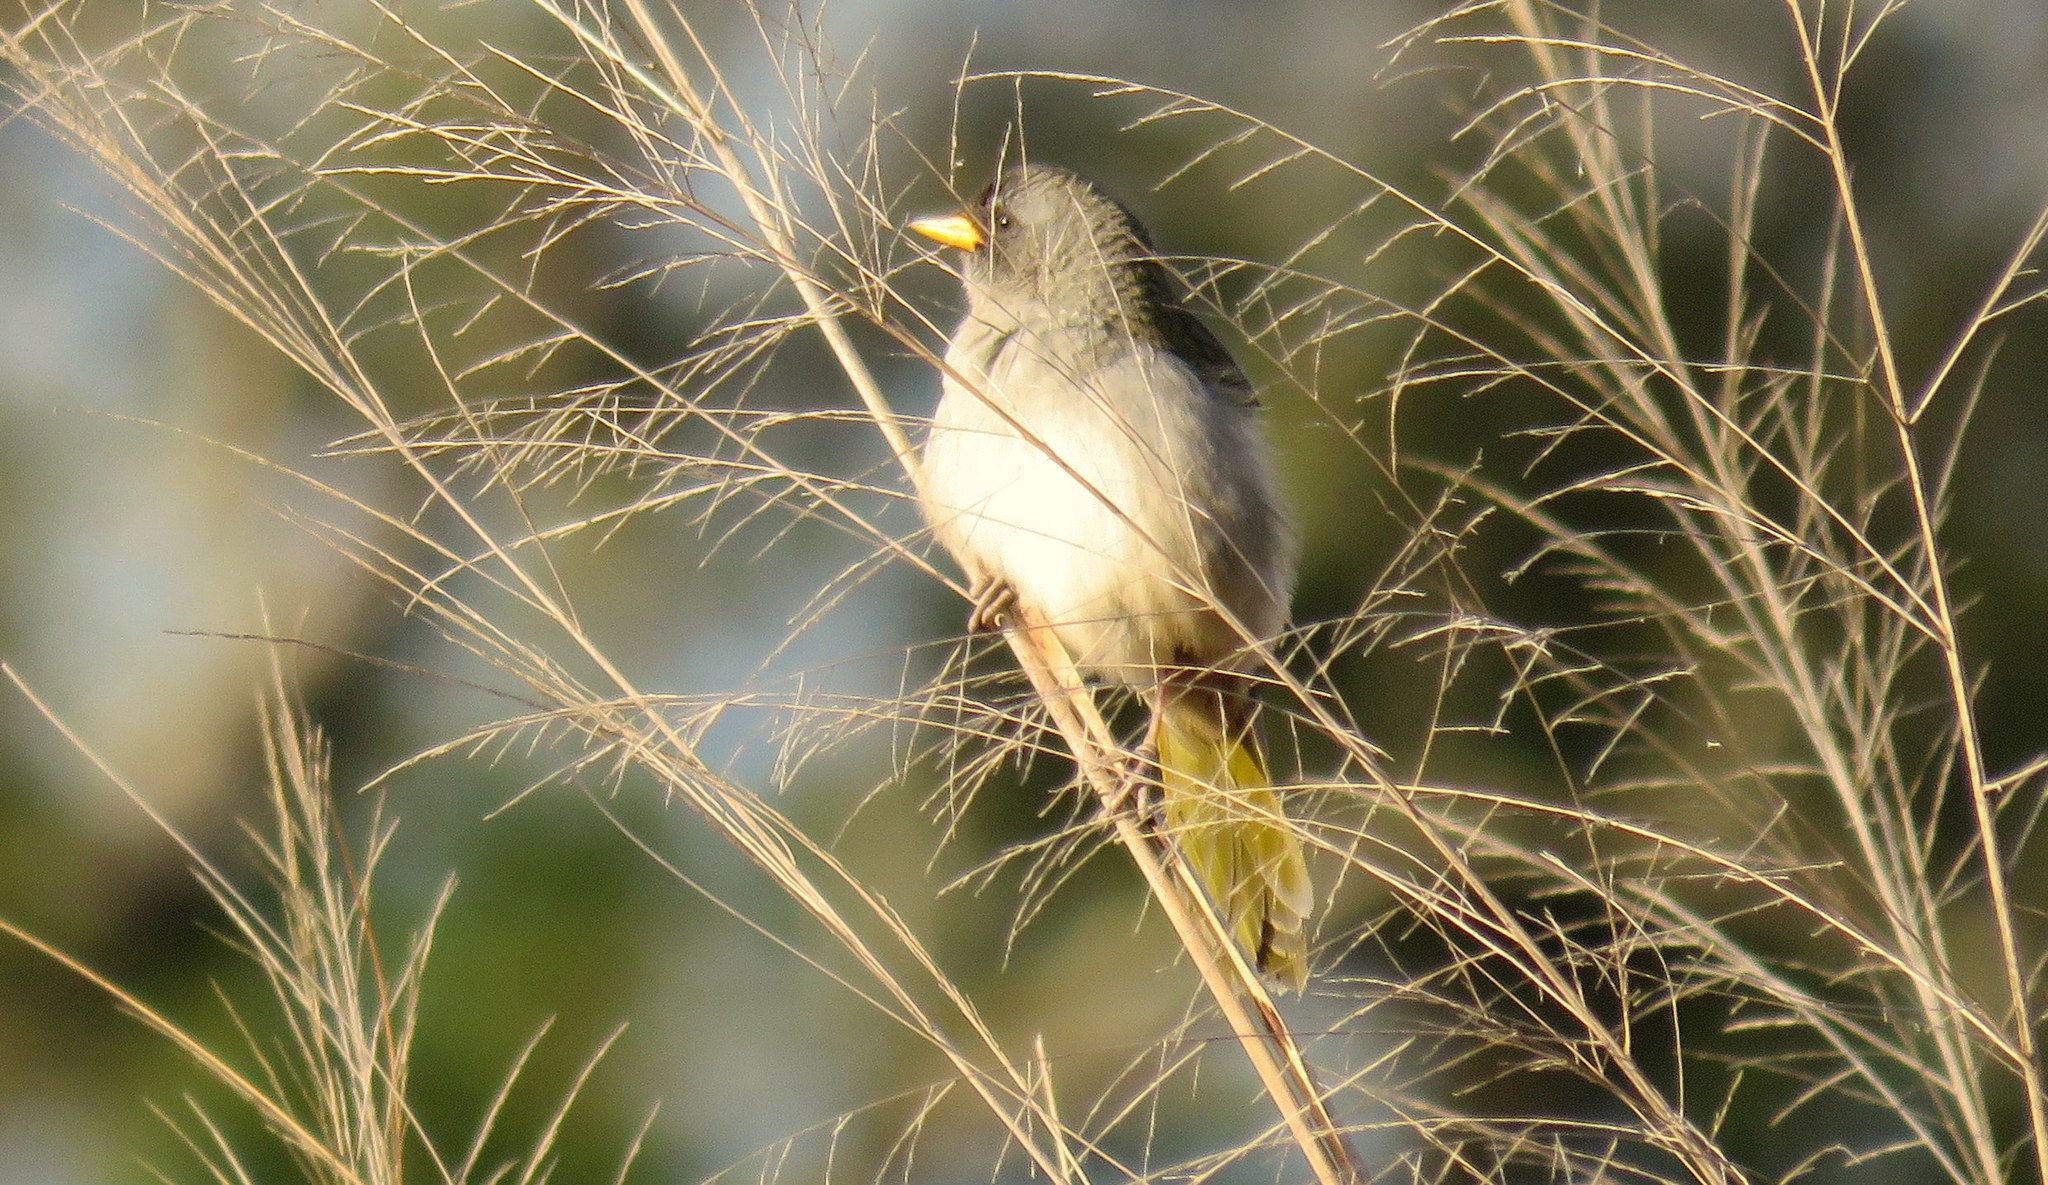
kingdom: Animalia
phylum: Chordata
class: Aves
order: Passeriformes
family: Thraupidae
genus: Embernagra
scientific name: Embernagra platensis
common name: Pampa finch
